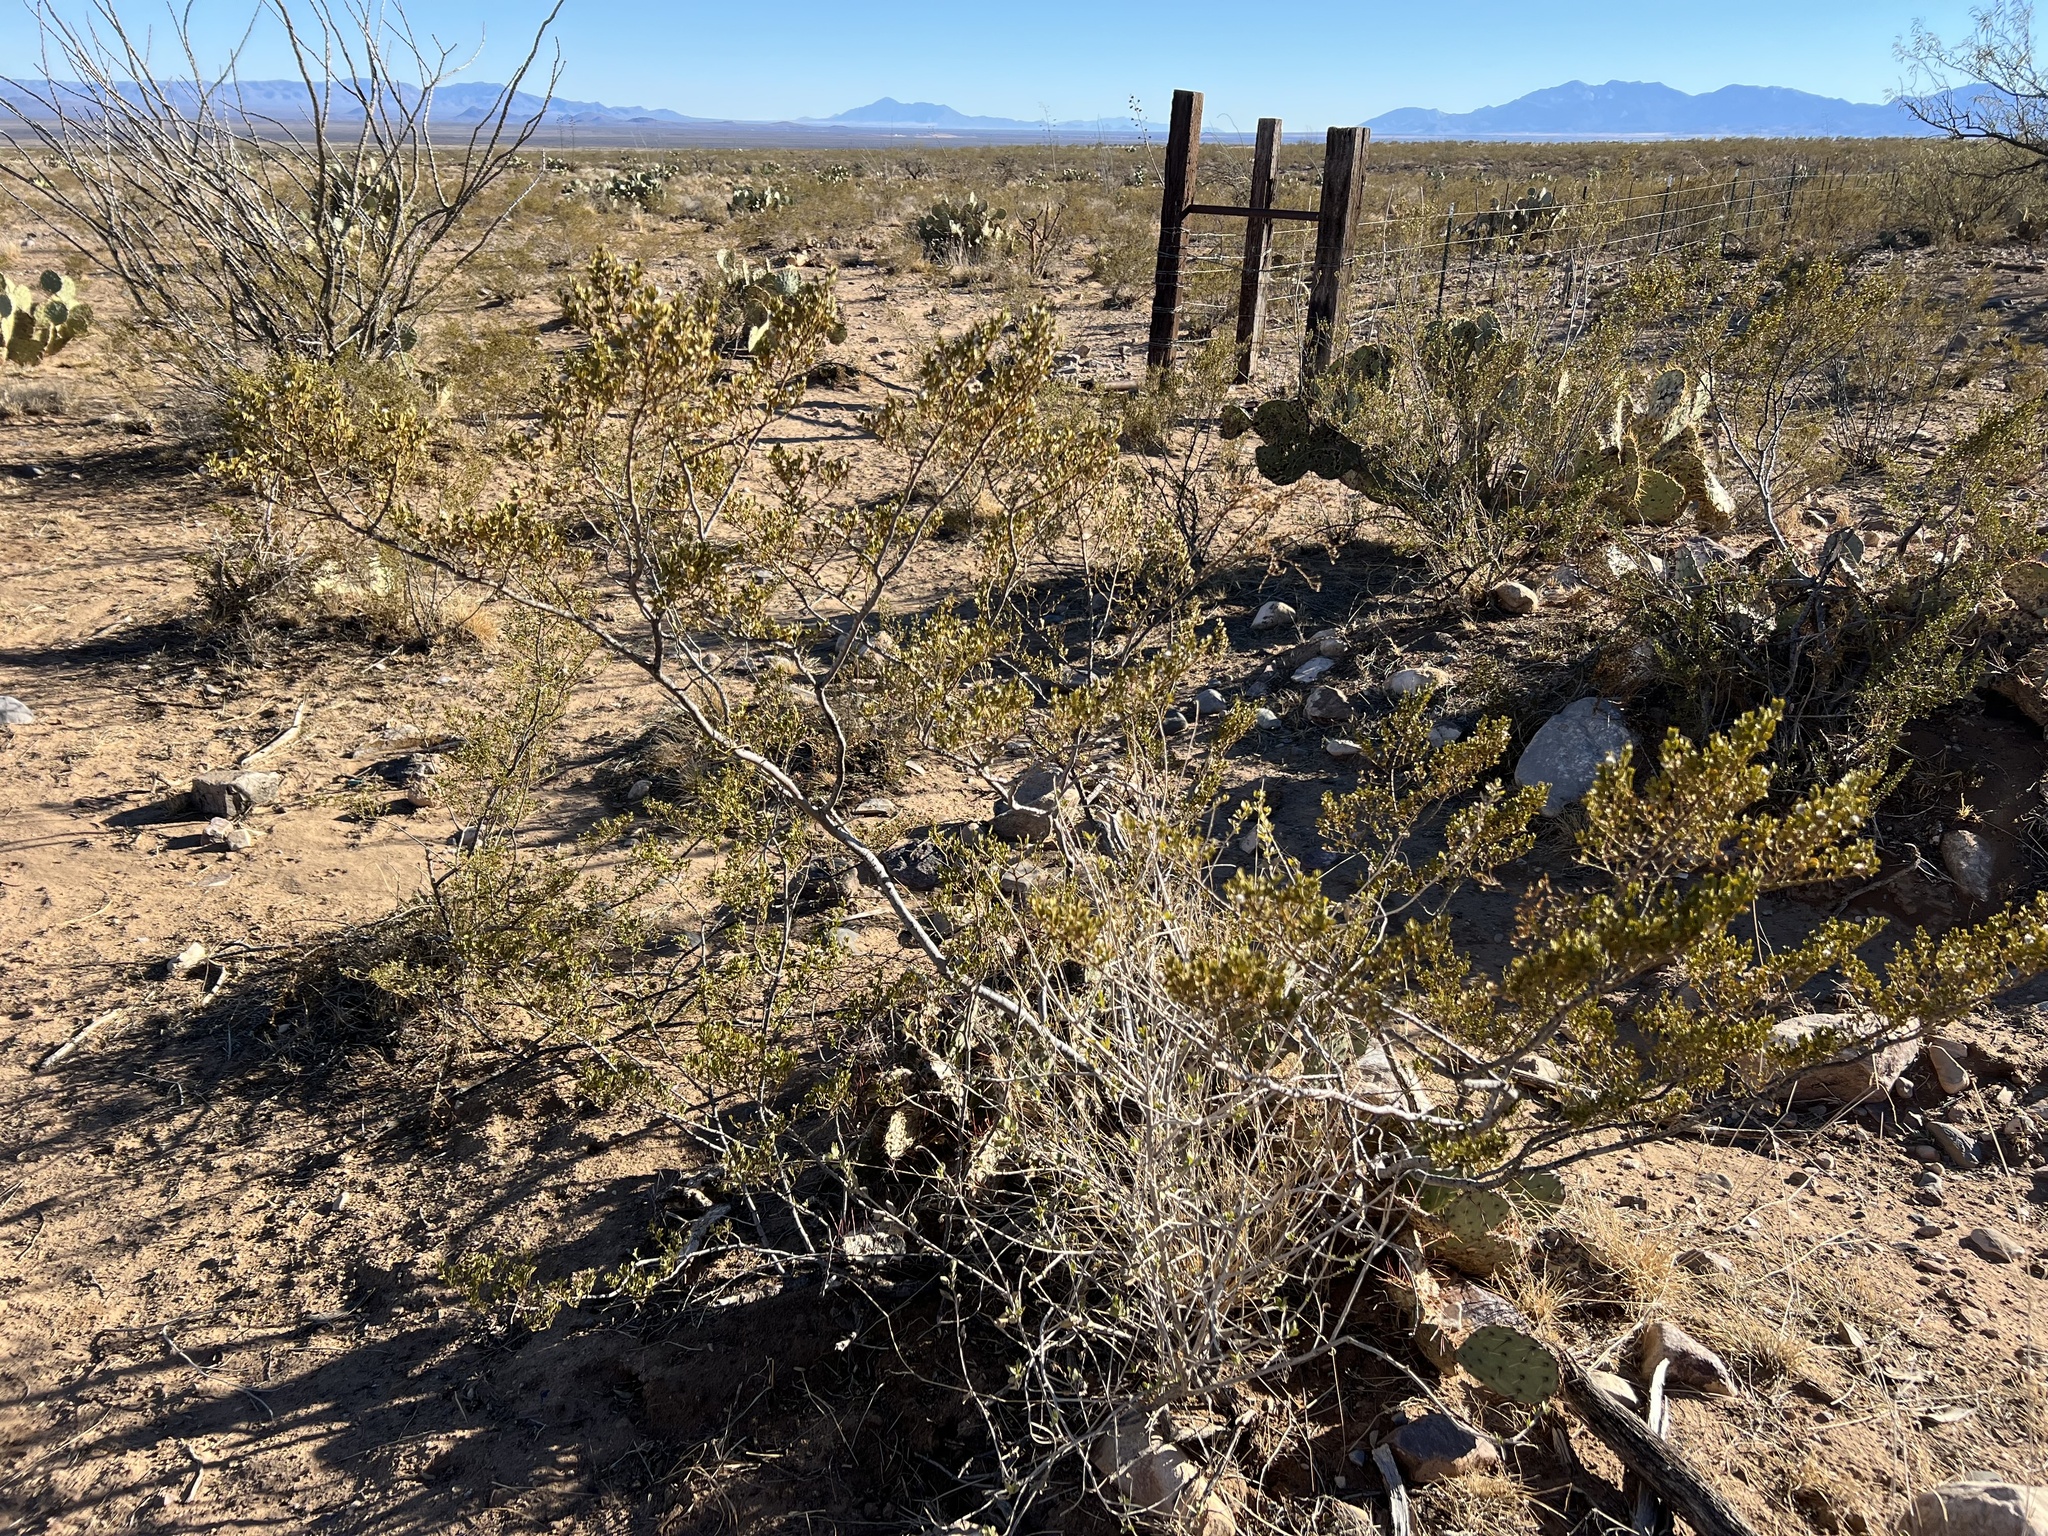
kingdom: Plantae
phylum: Tracheophyta
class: Magnoliopsida
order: Zygophyllales
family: Zygophyllaceae
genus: Larrea
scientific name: Larrea tridentata
